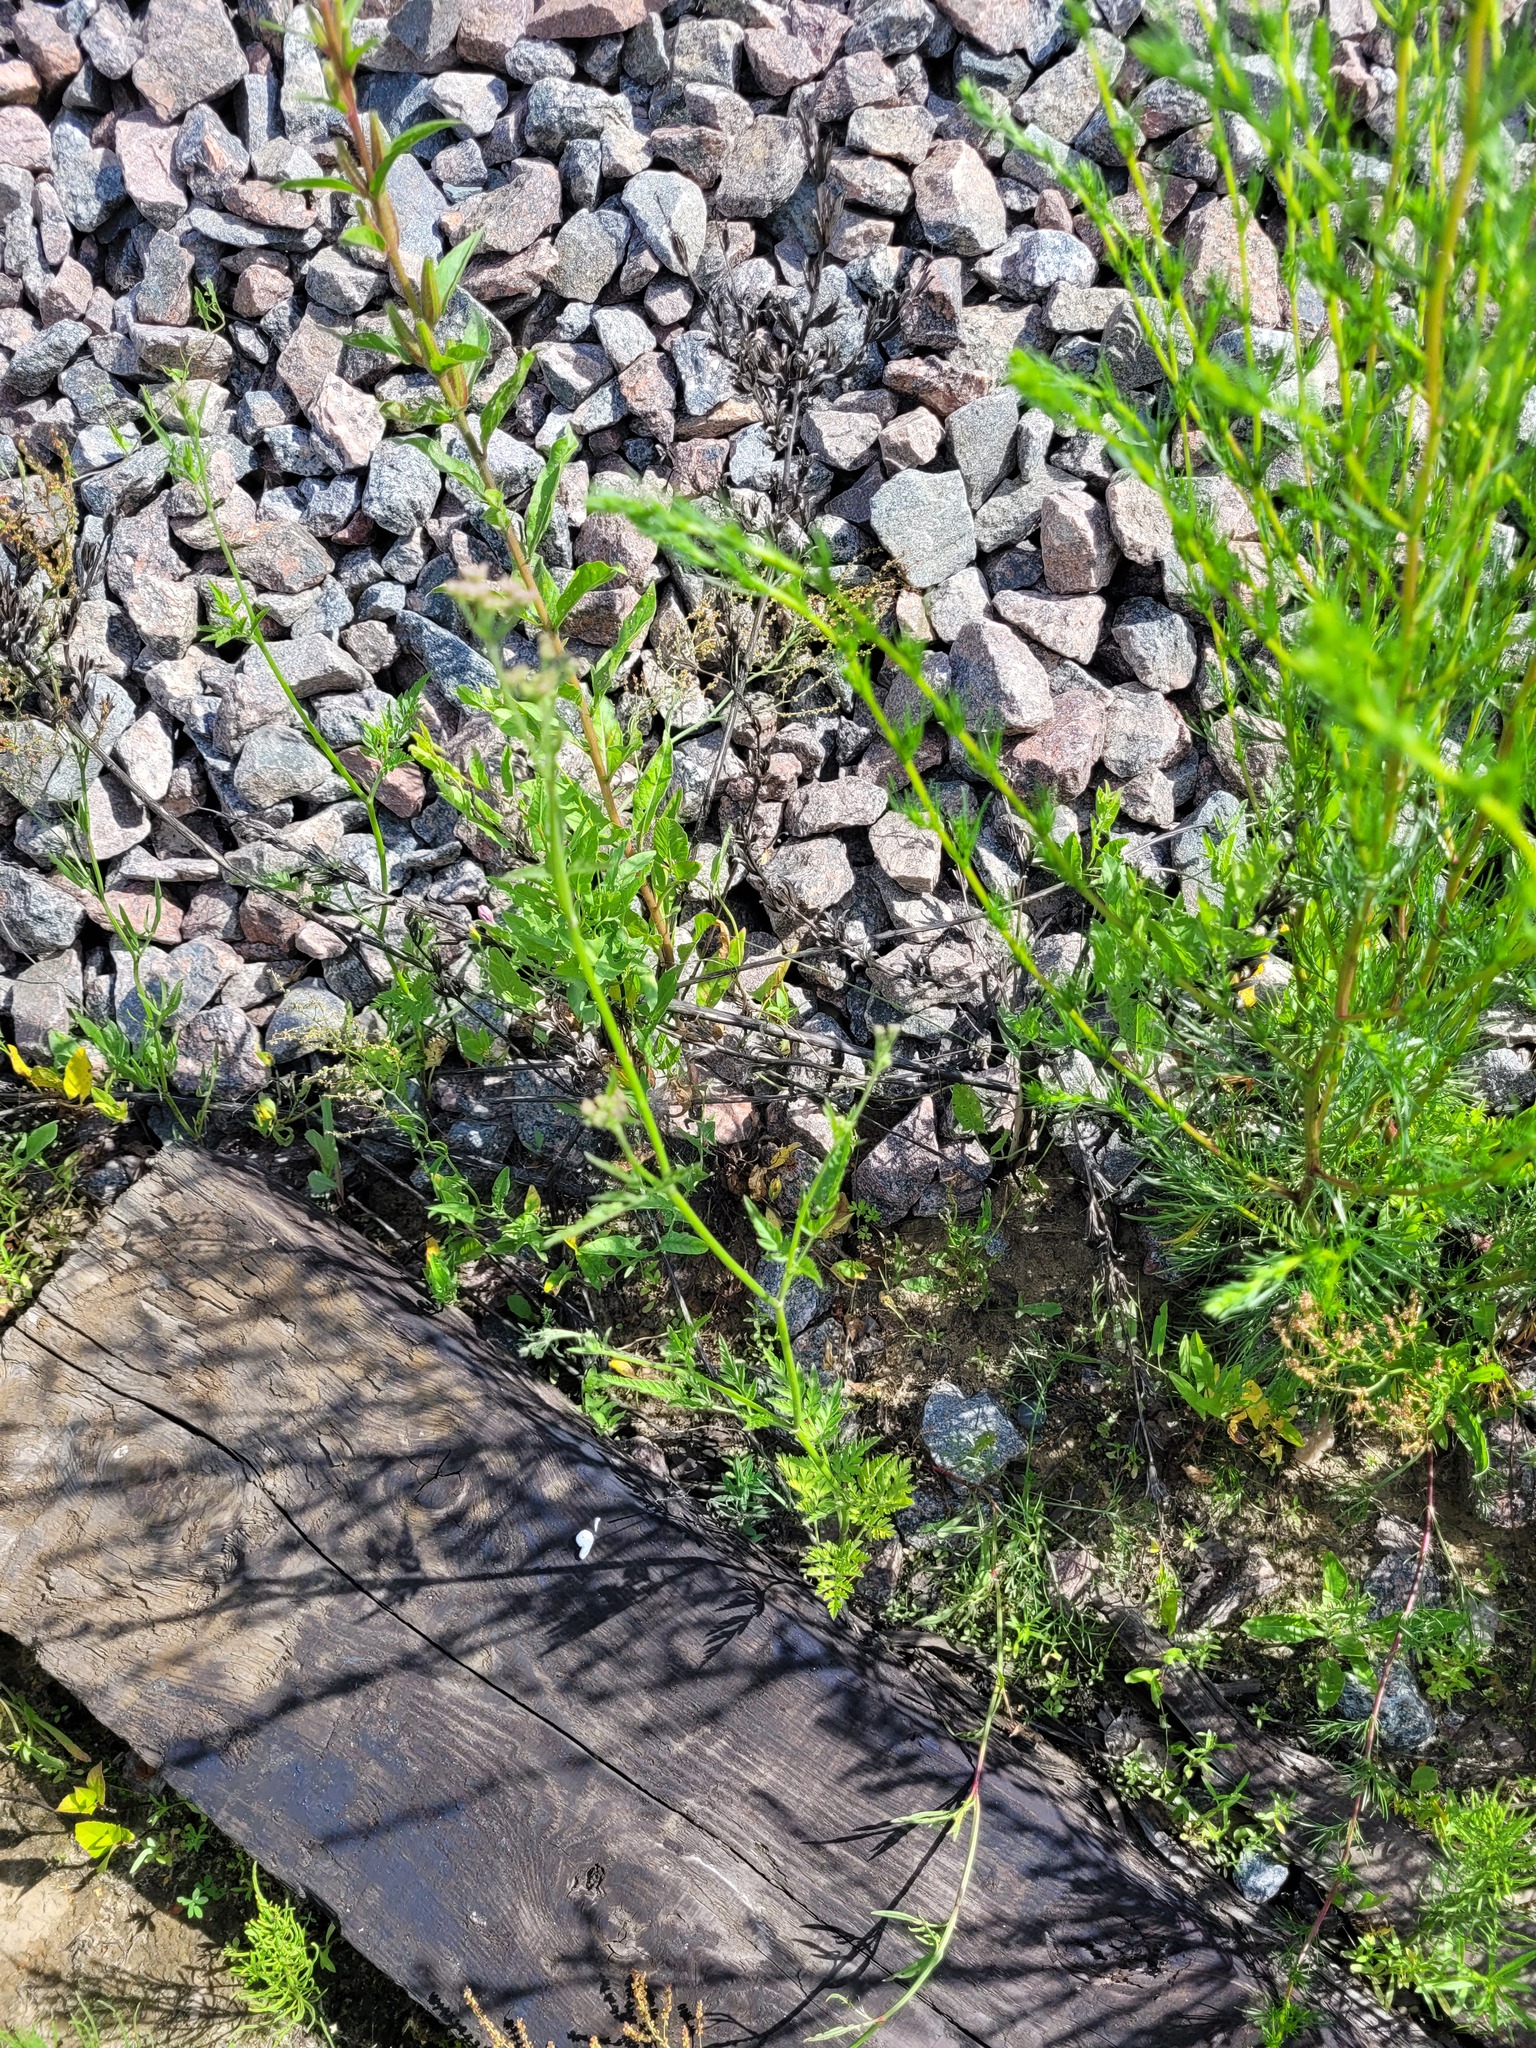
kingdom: Plantae
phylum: Tracheophyta
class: Magnoliopsida
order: Apiales
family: Apiaceae
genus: Torilis
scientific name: Torilis japonica
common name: Upright hedge-parsley
